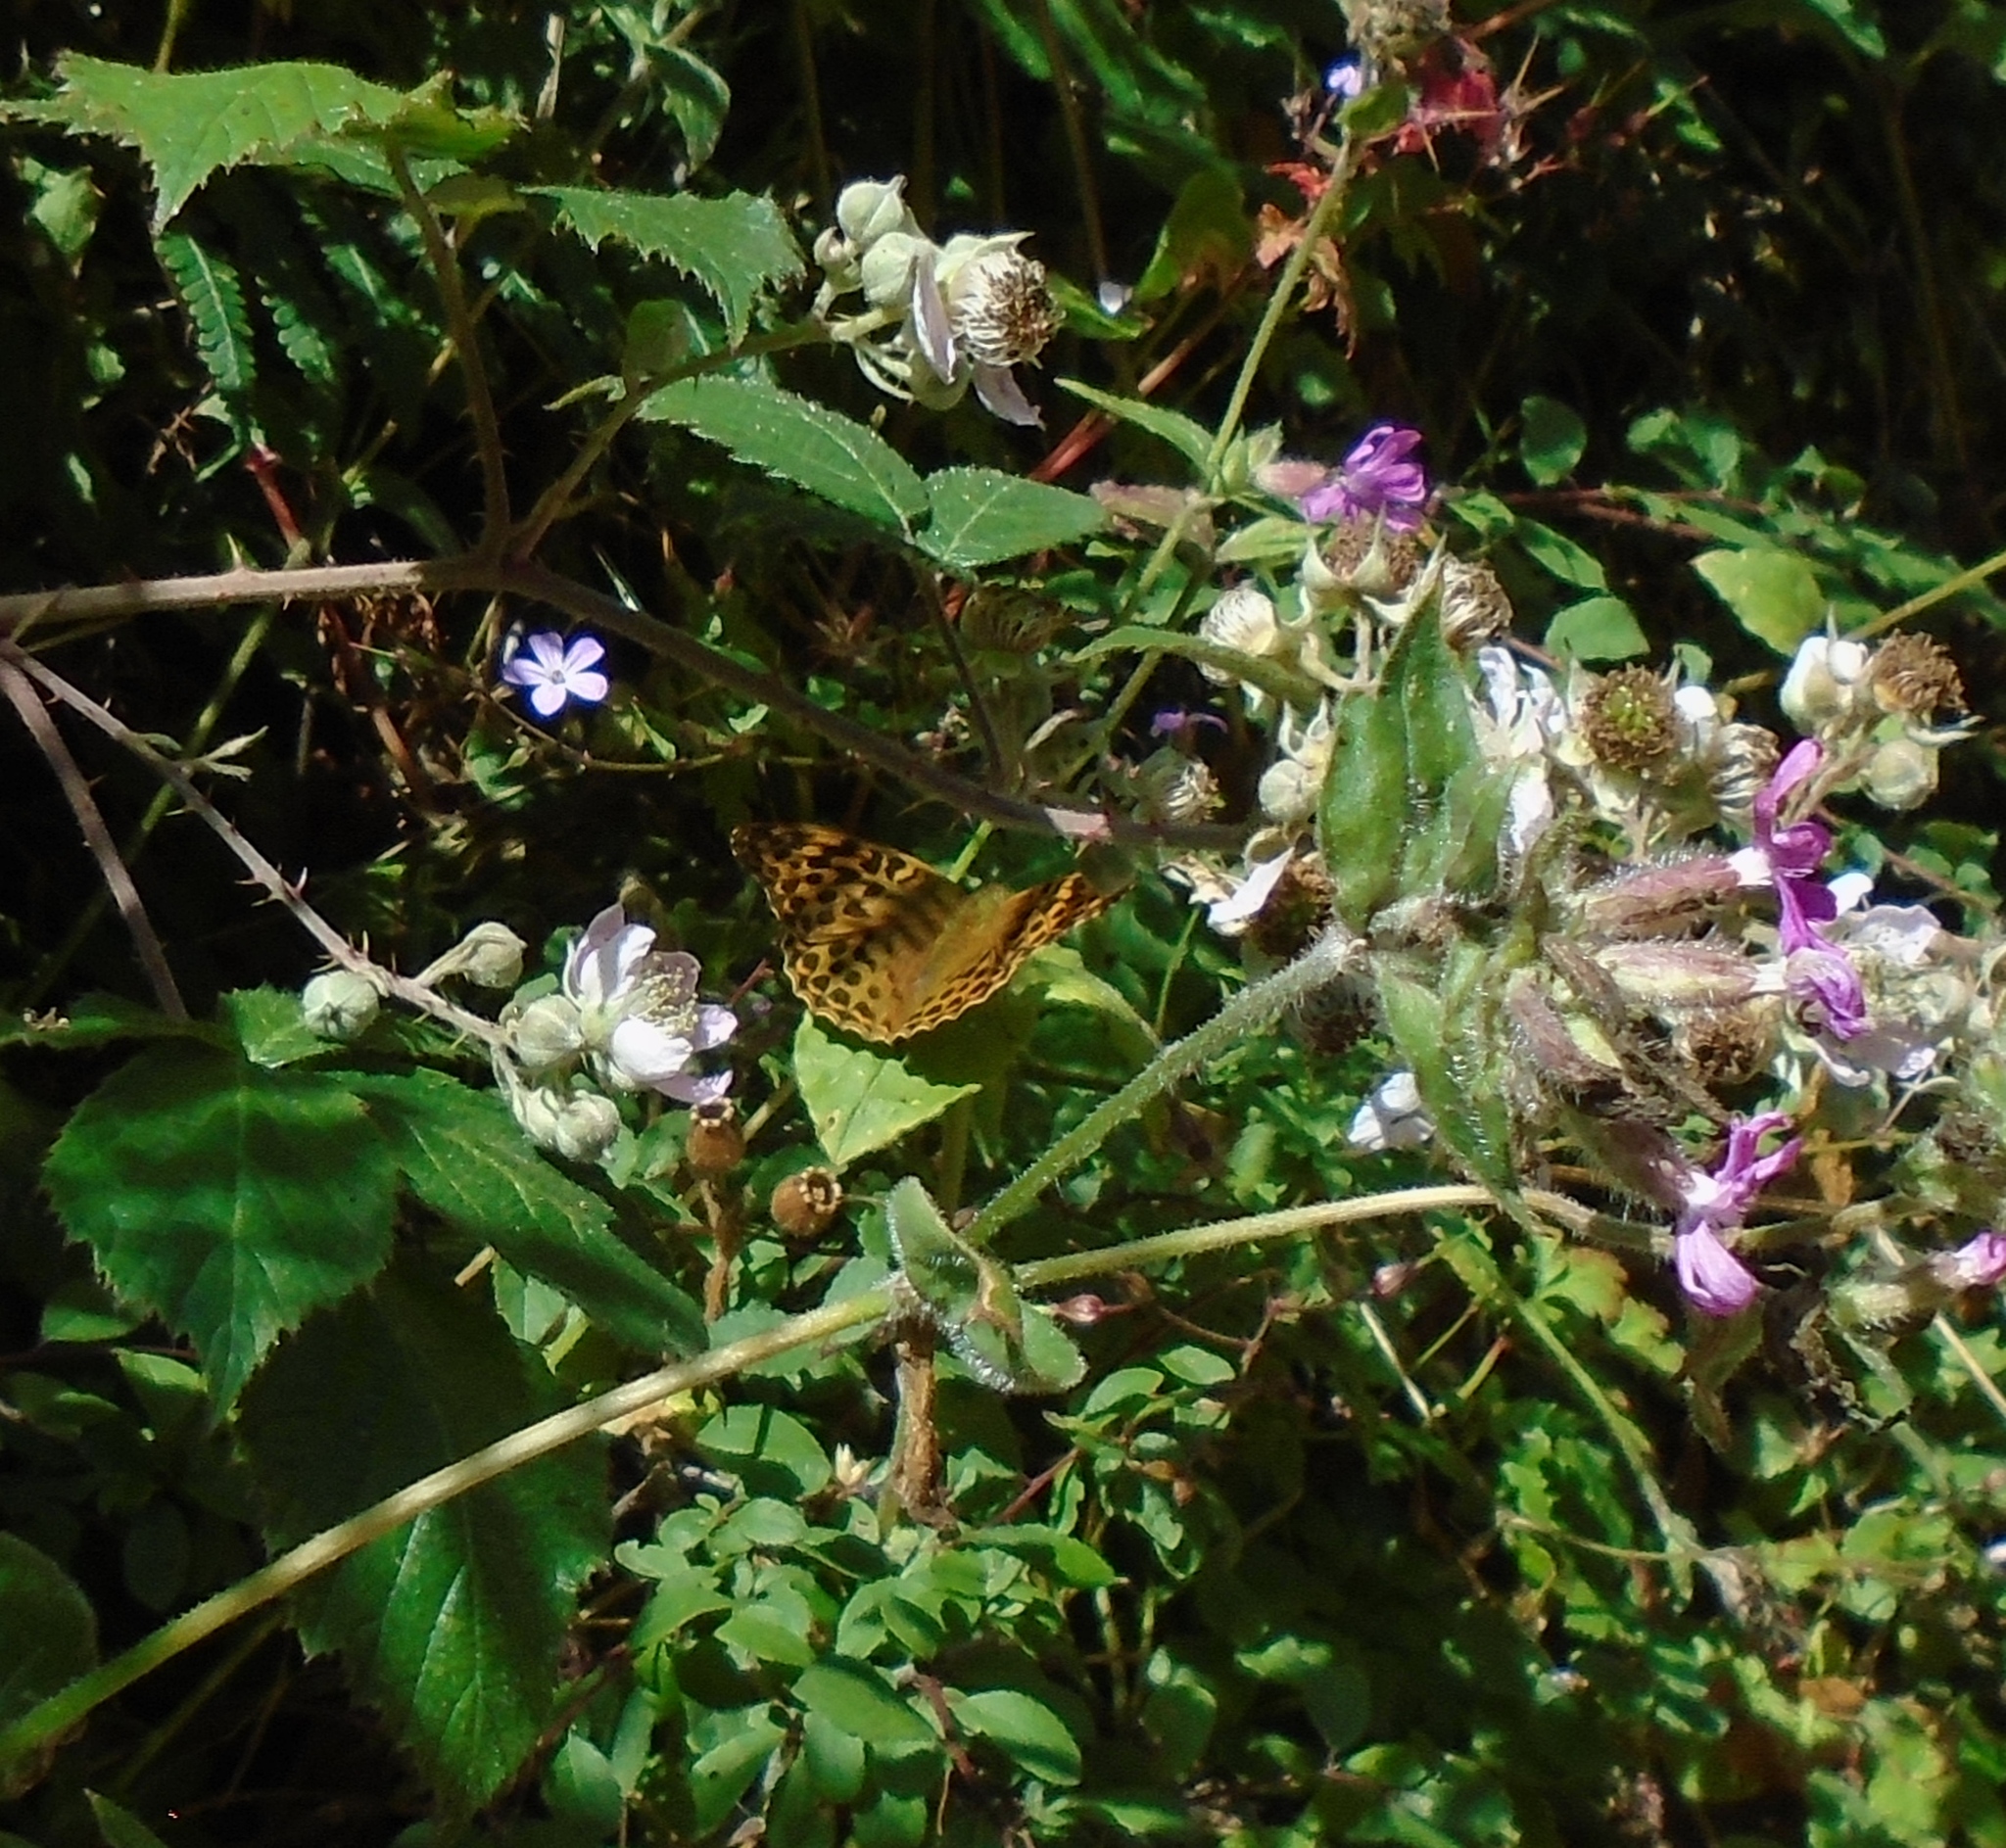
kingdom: Animalia
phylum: Arthropoda
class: Insecta
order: Lepidoptera
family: Nymphalidae
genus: Argynnis
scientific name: Argynnis paphia
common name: Silver-washed fritillary
